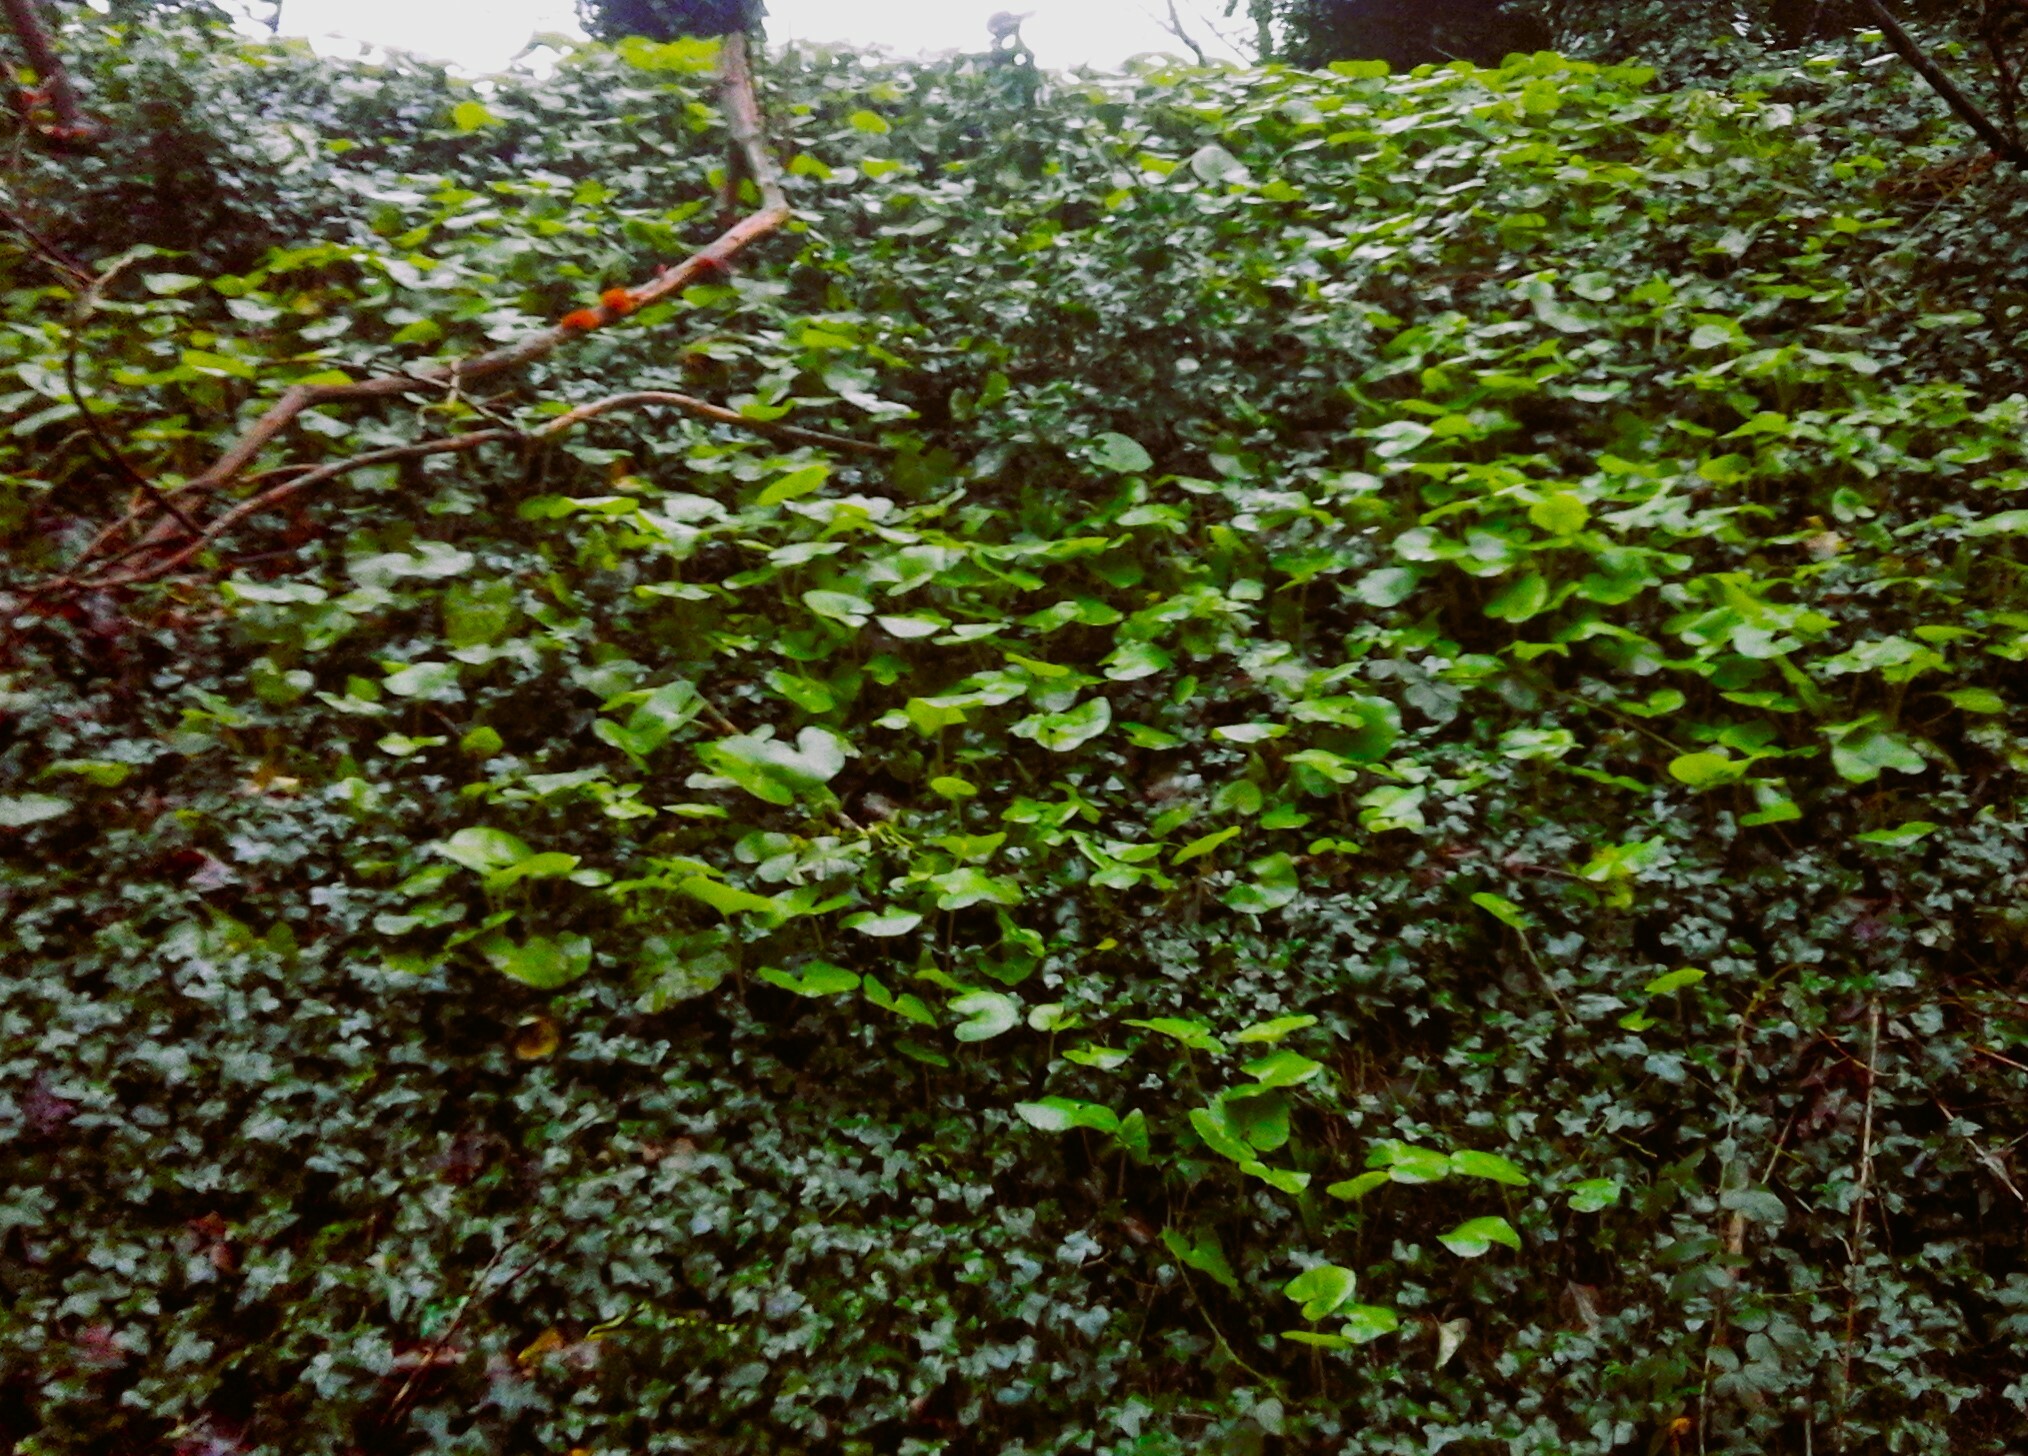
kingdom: Plantae
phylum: Tracheophyta
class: Magnoliopsida
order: Asterales
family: Asteraceae
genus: Petasites
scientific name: Petasites pyrenaicus
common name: Winter heliotrope
